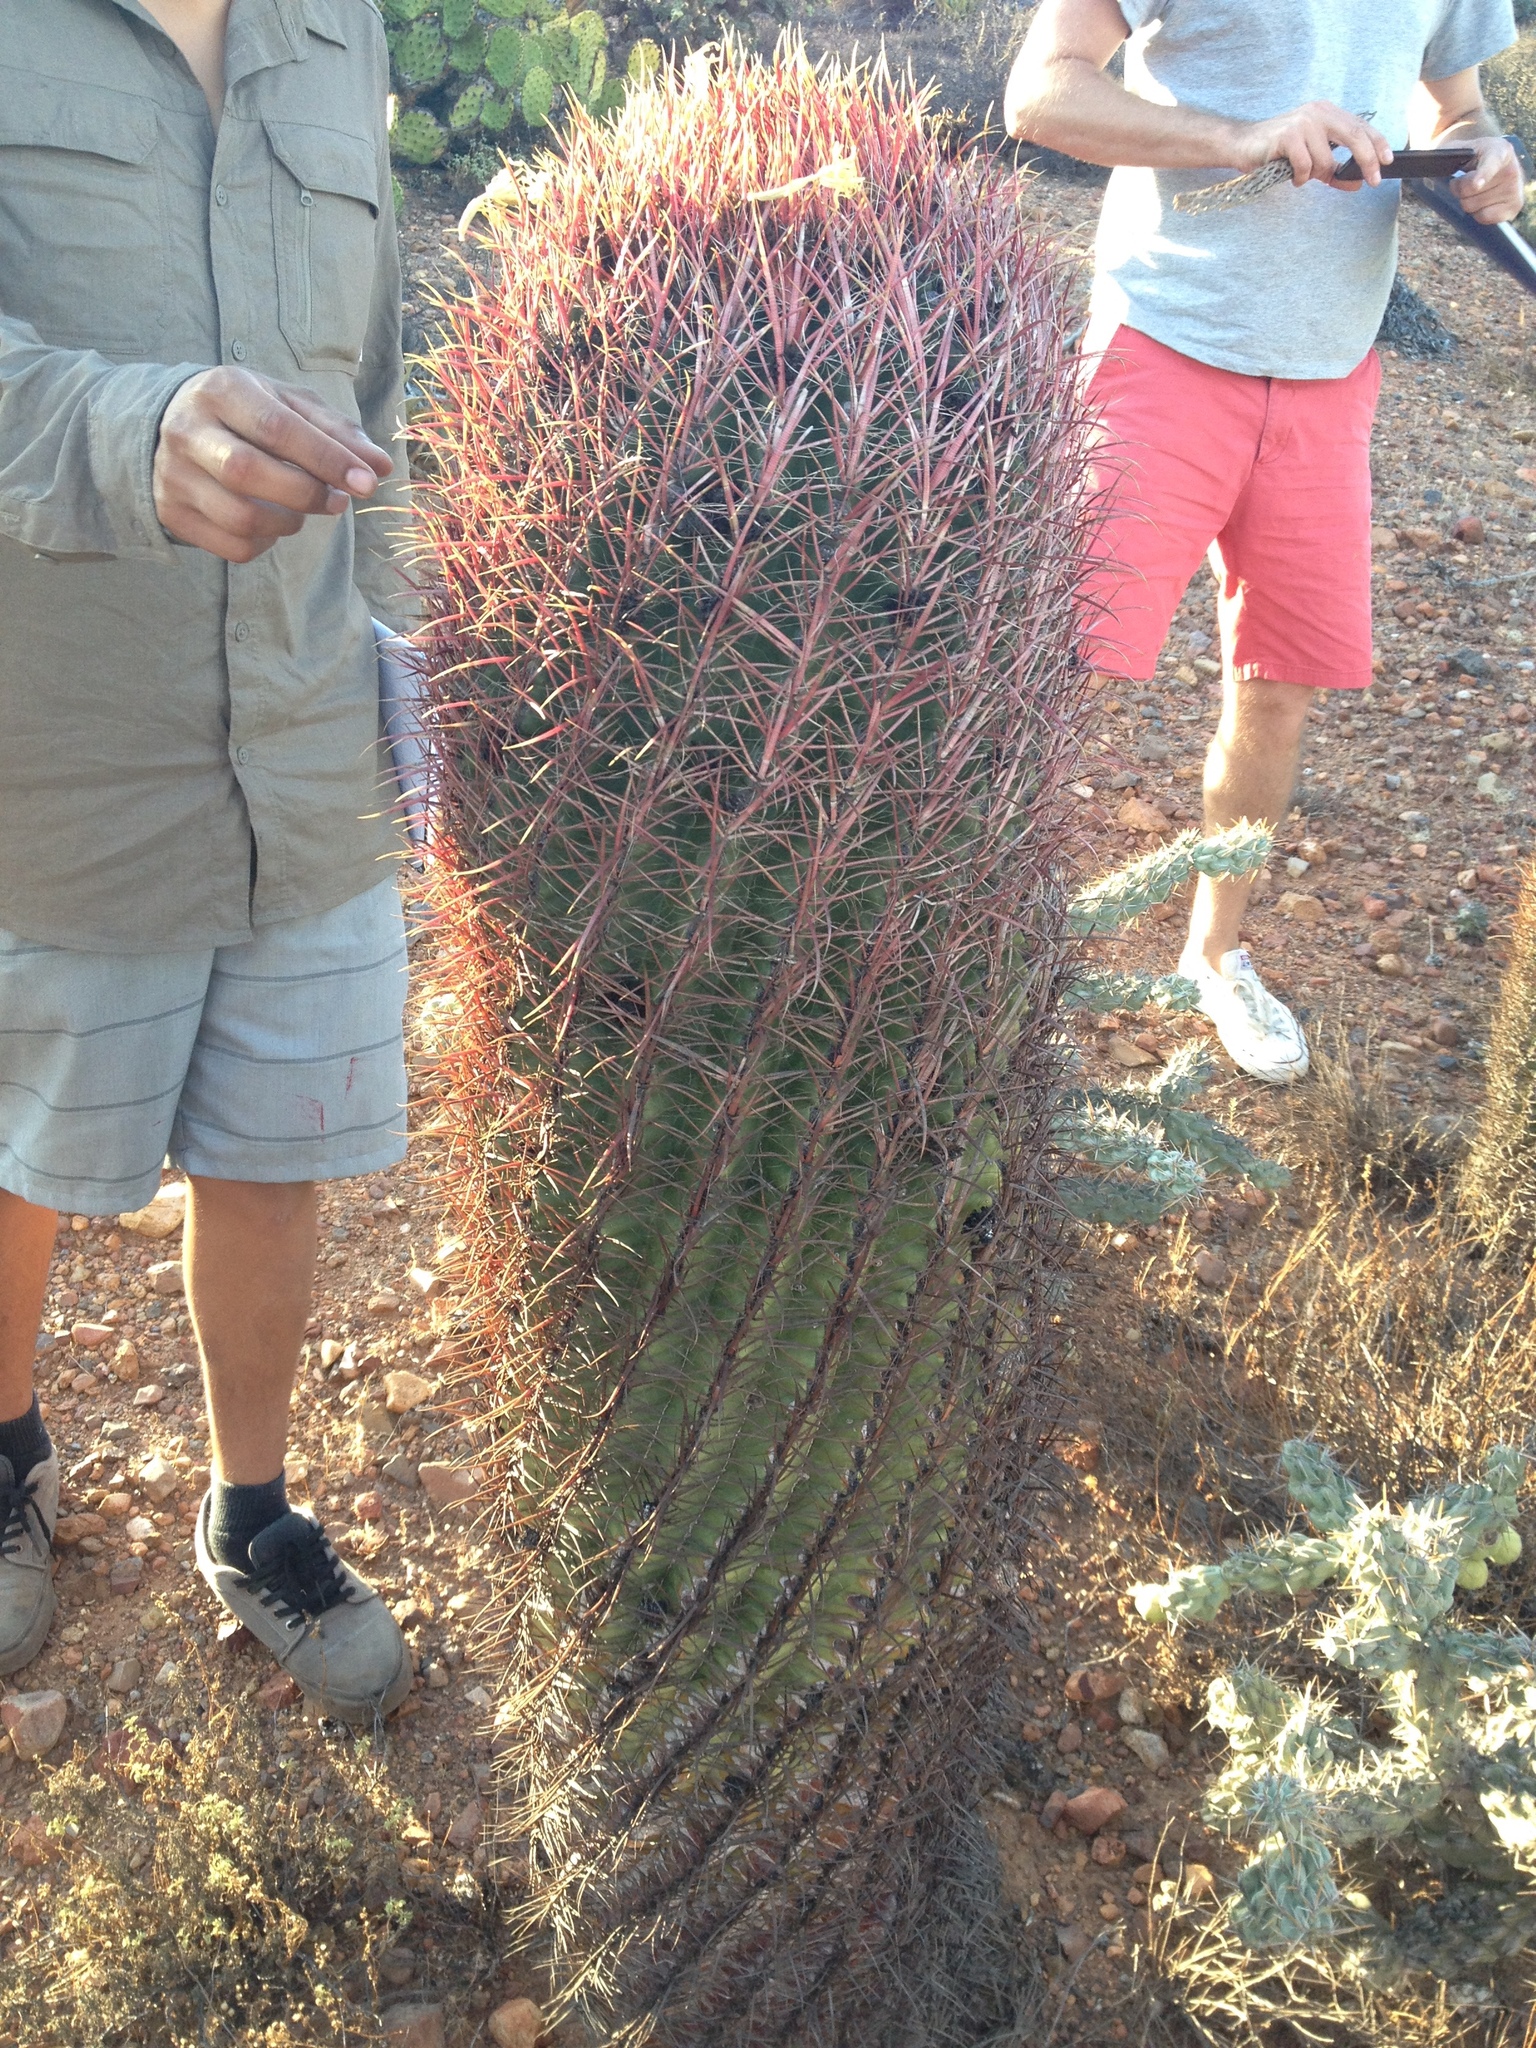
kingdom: Plantae
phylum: Tracheophyta
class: Magnoliopsida
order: Caryophyllales
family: Cactaceae
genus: Ferocactus
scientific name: Ferocactus gracilis
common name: Fire barrel cactus
